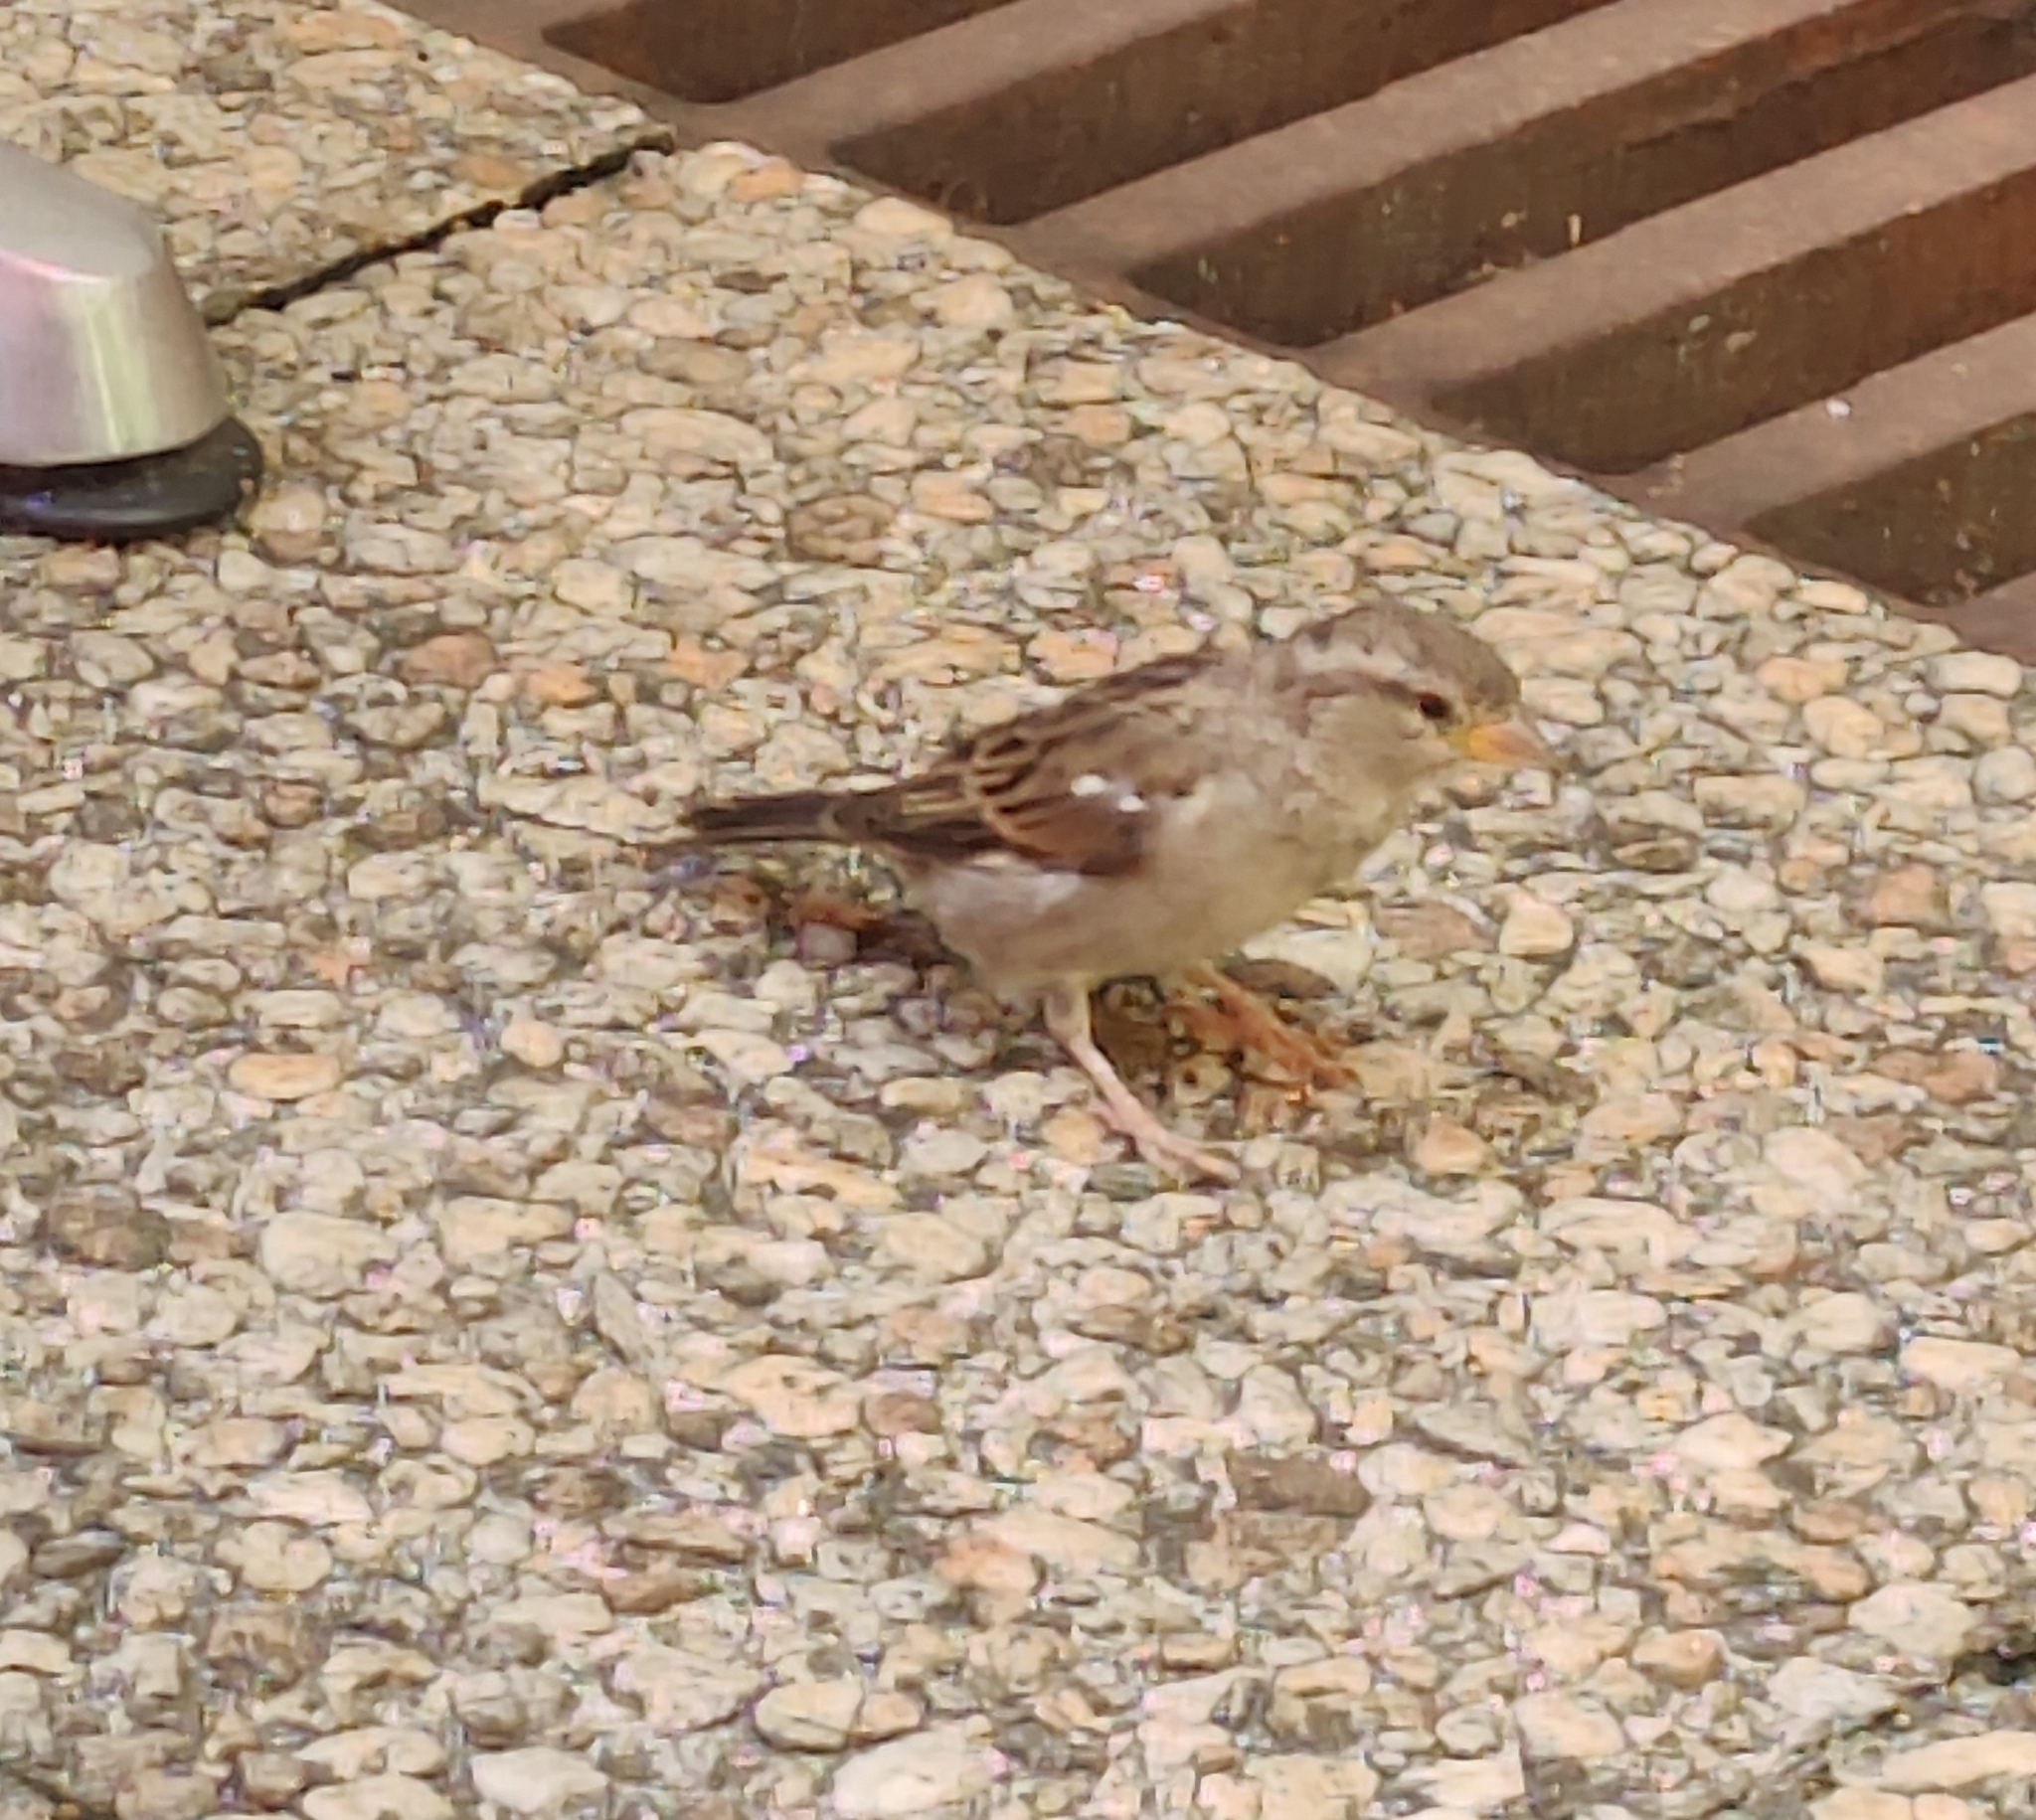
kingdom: Animalia
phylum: Chordata
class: Aves
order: Passeriformes
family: Passeridae
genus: Passer
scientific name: Passer domesticus
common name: House sparrow
